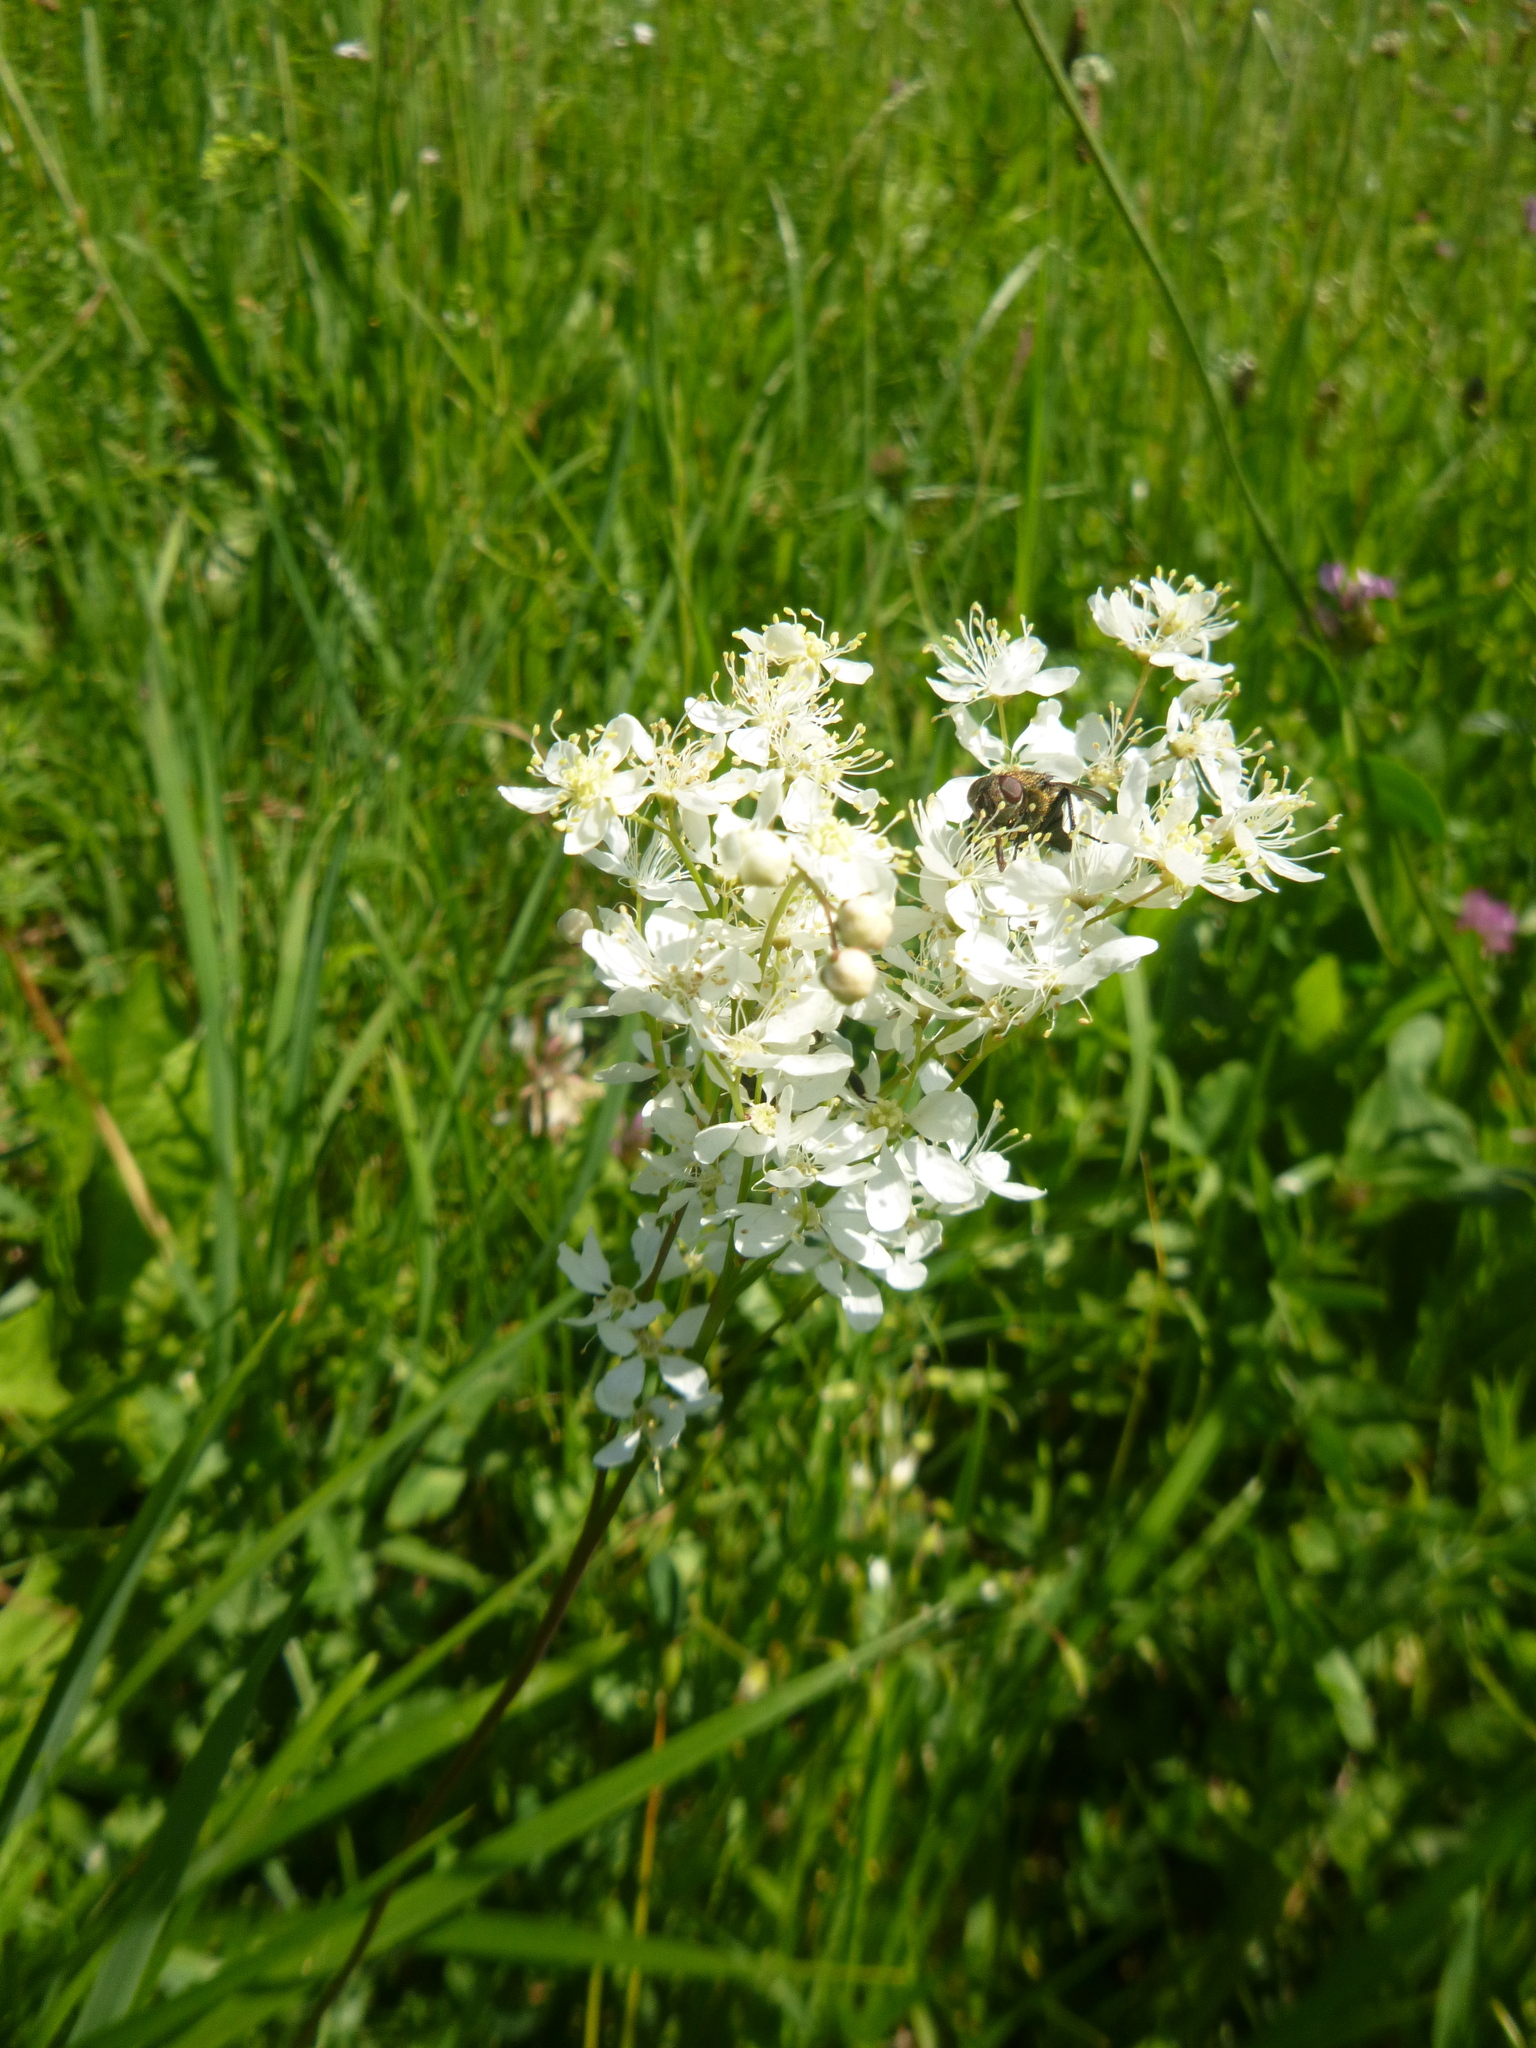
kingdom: Plantae
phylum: Tracheophyta
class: Magnoliopsida
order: Rosales
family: Rosaceae
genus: Filipendula
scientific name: Filipendula vulgaris
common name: Dropwort
